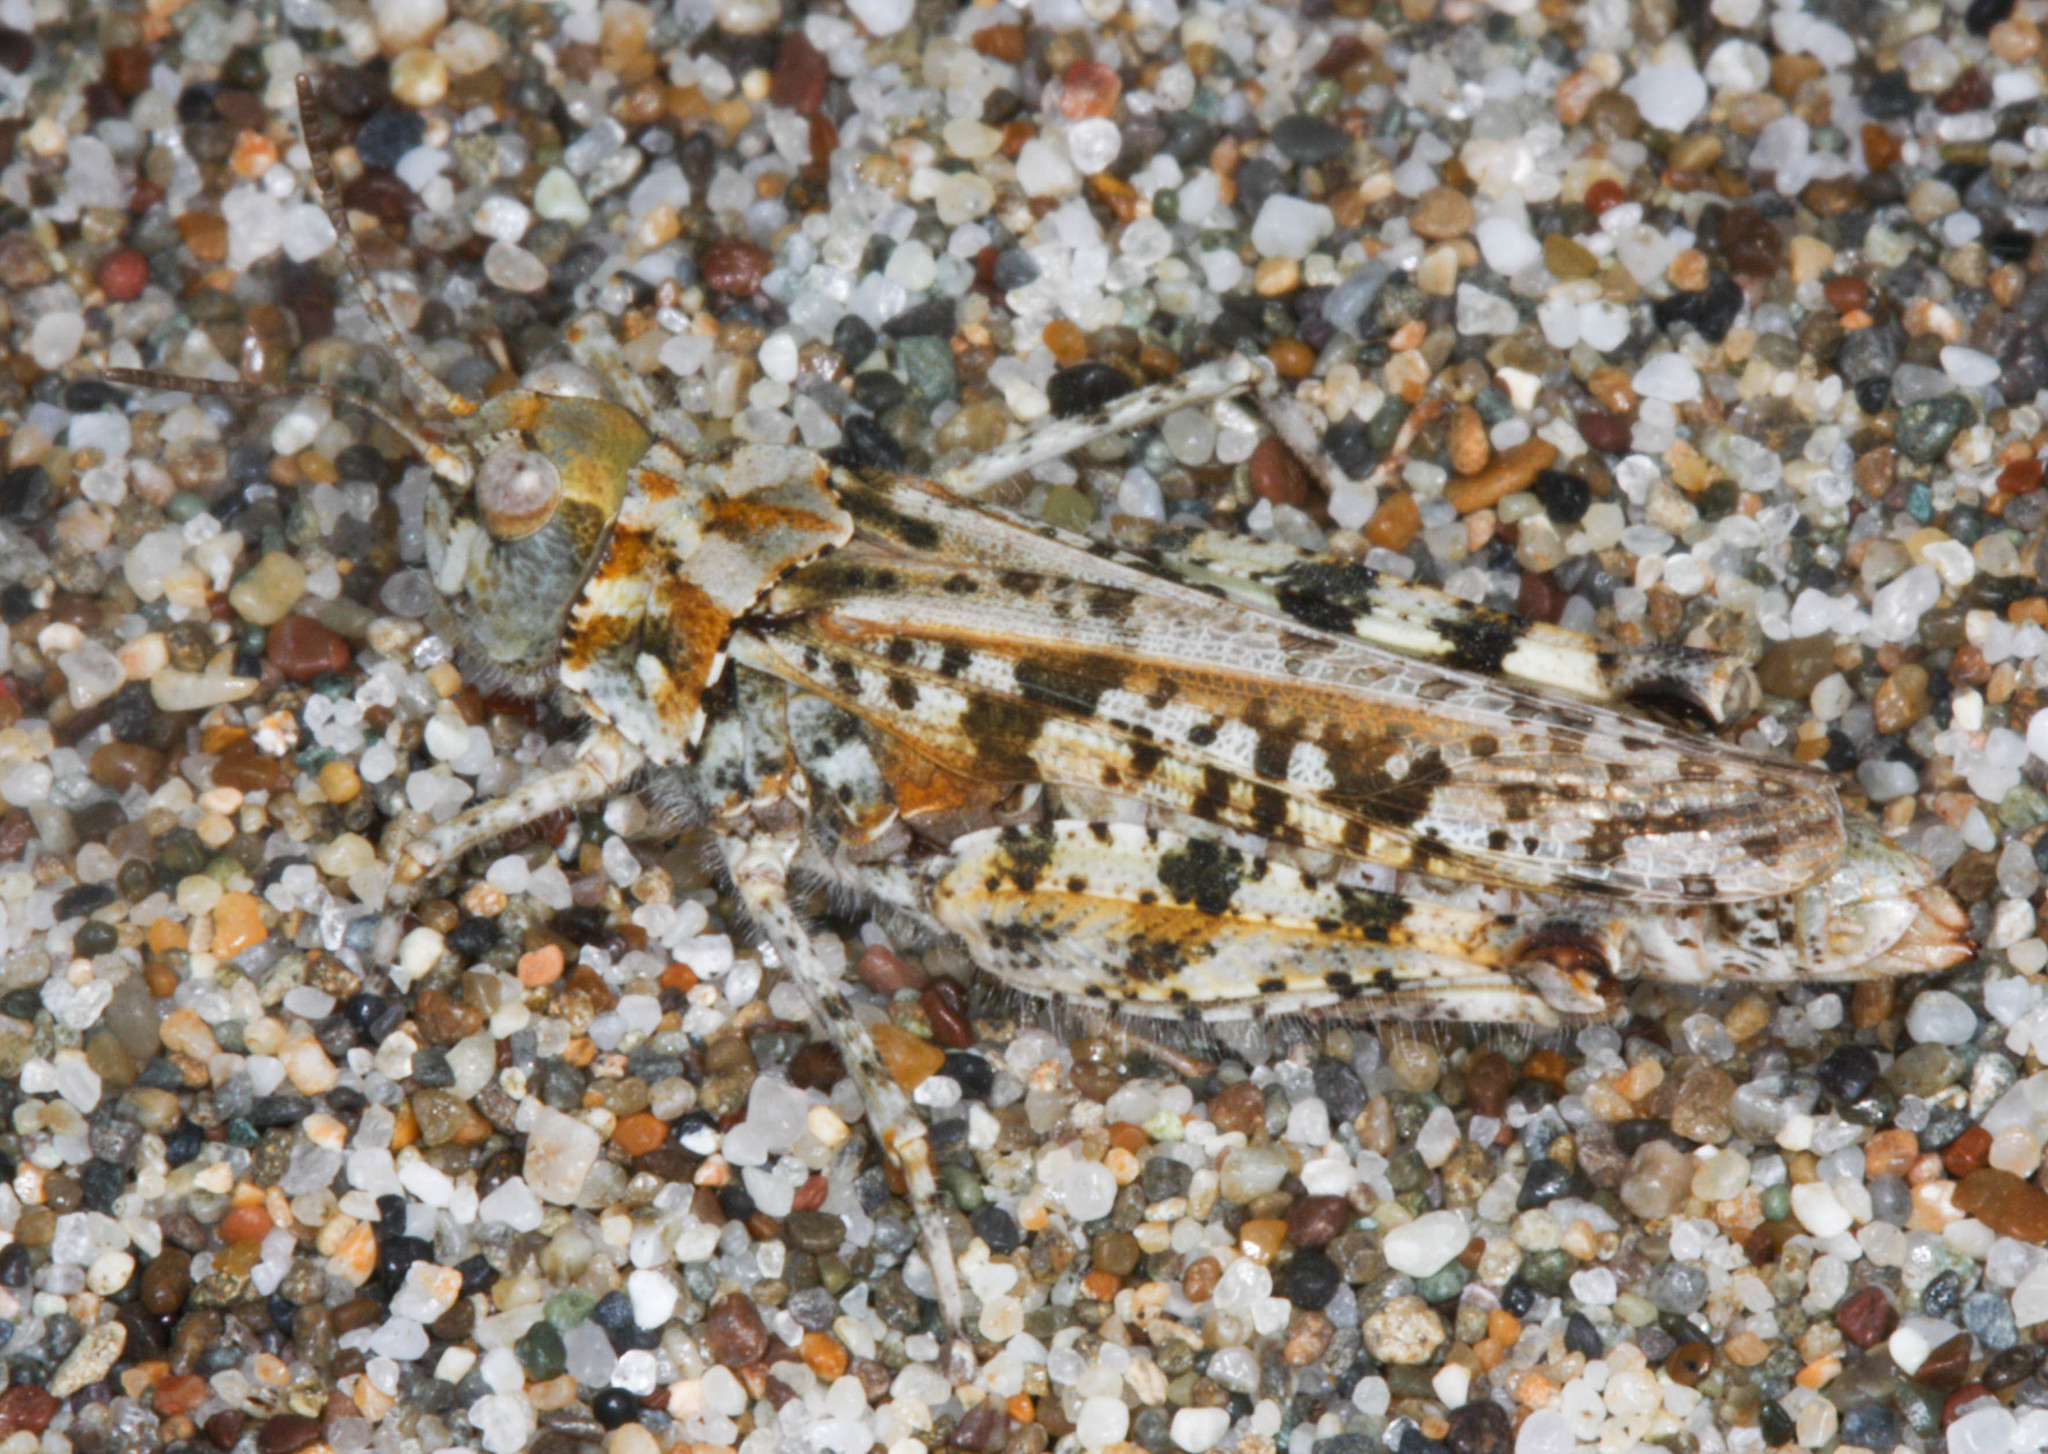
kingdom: Animalia
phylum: Arthropoda
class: Insecta
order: Orthoptera
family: Acrididae
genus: Microtes
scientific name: Microtes occidentalis
